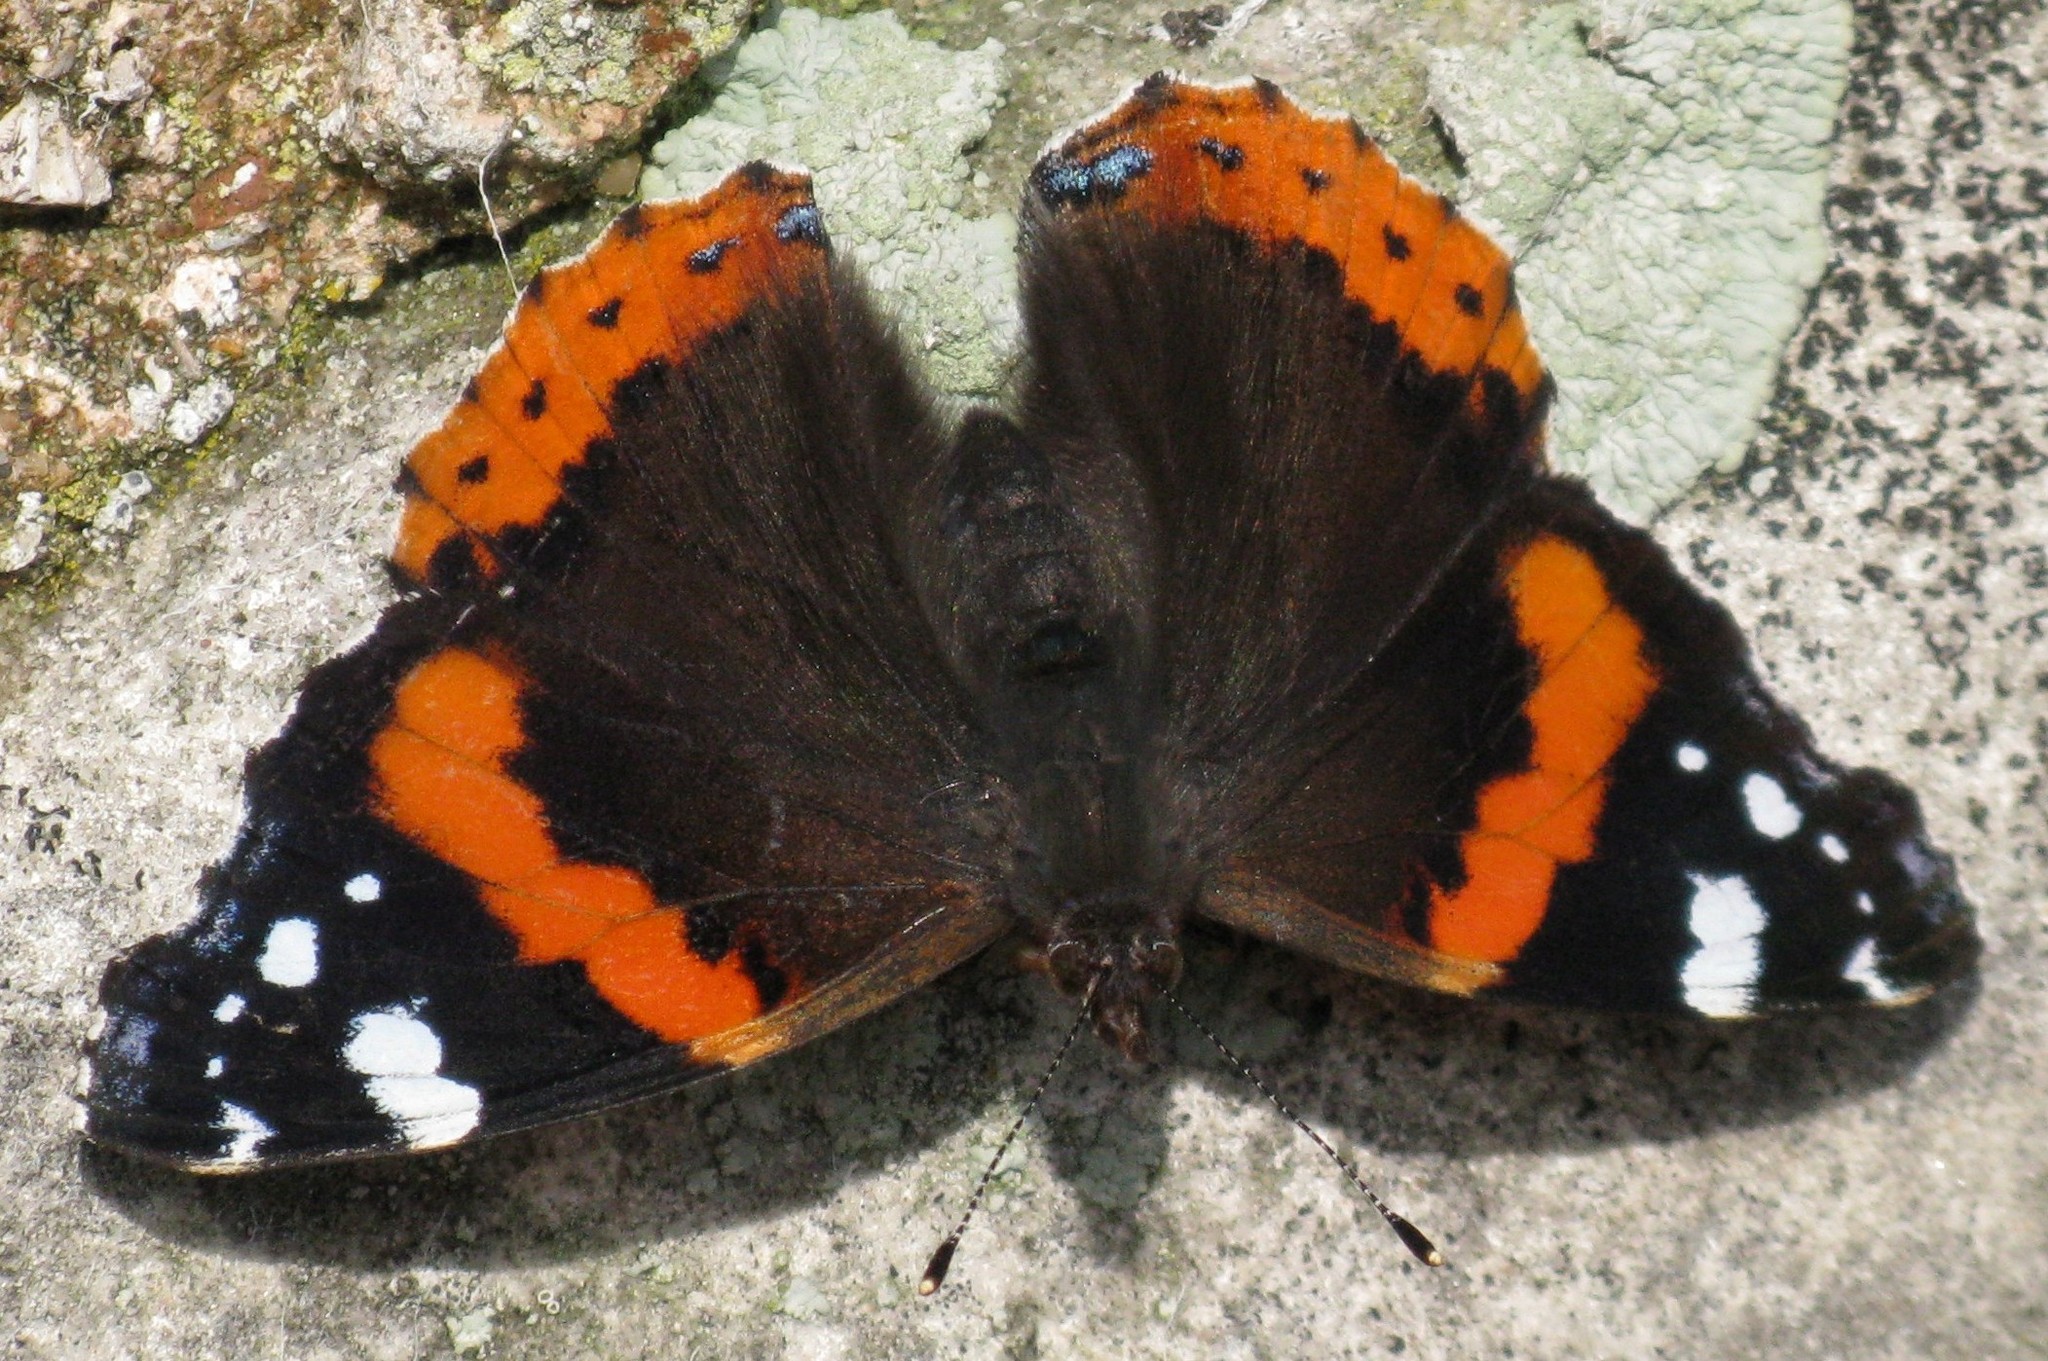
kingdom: Animalia
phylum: Arthropoda
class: Insecta
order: Lepidoptera
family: Nymphalidae
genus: Vanessa
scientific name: Vanessa atalanta
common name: Red admiral
